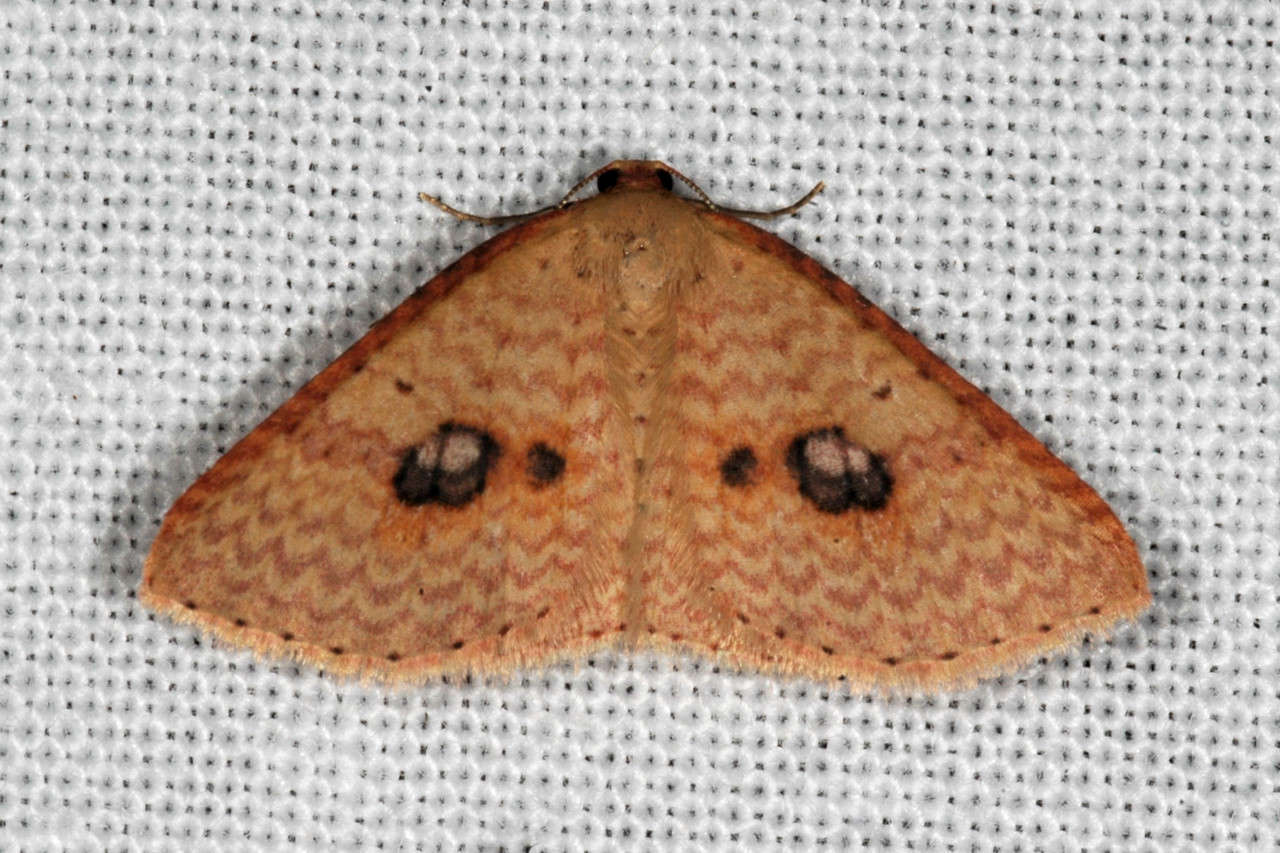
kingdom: Animalia
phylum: Arthropoda
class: Insecta
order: Lepidoptera
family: Geometridae
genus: Epicyme
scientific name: Epicyme rubropunctaria
